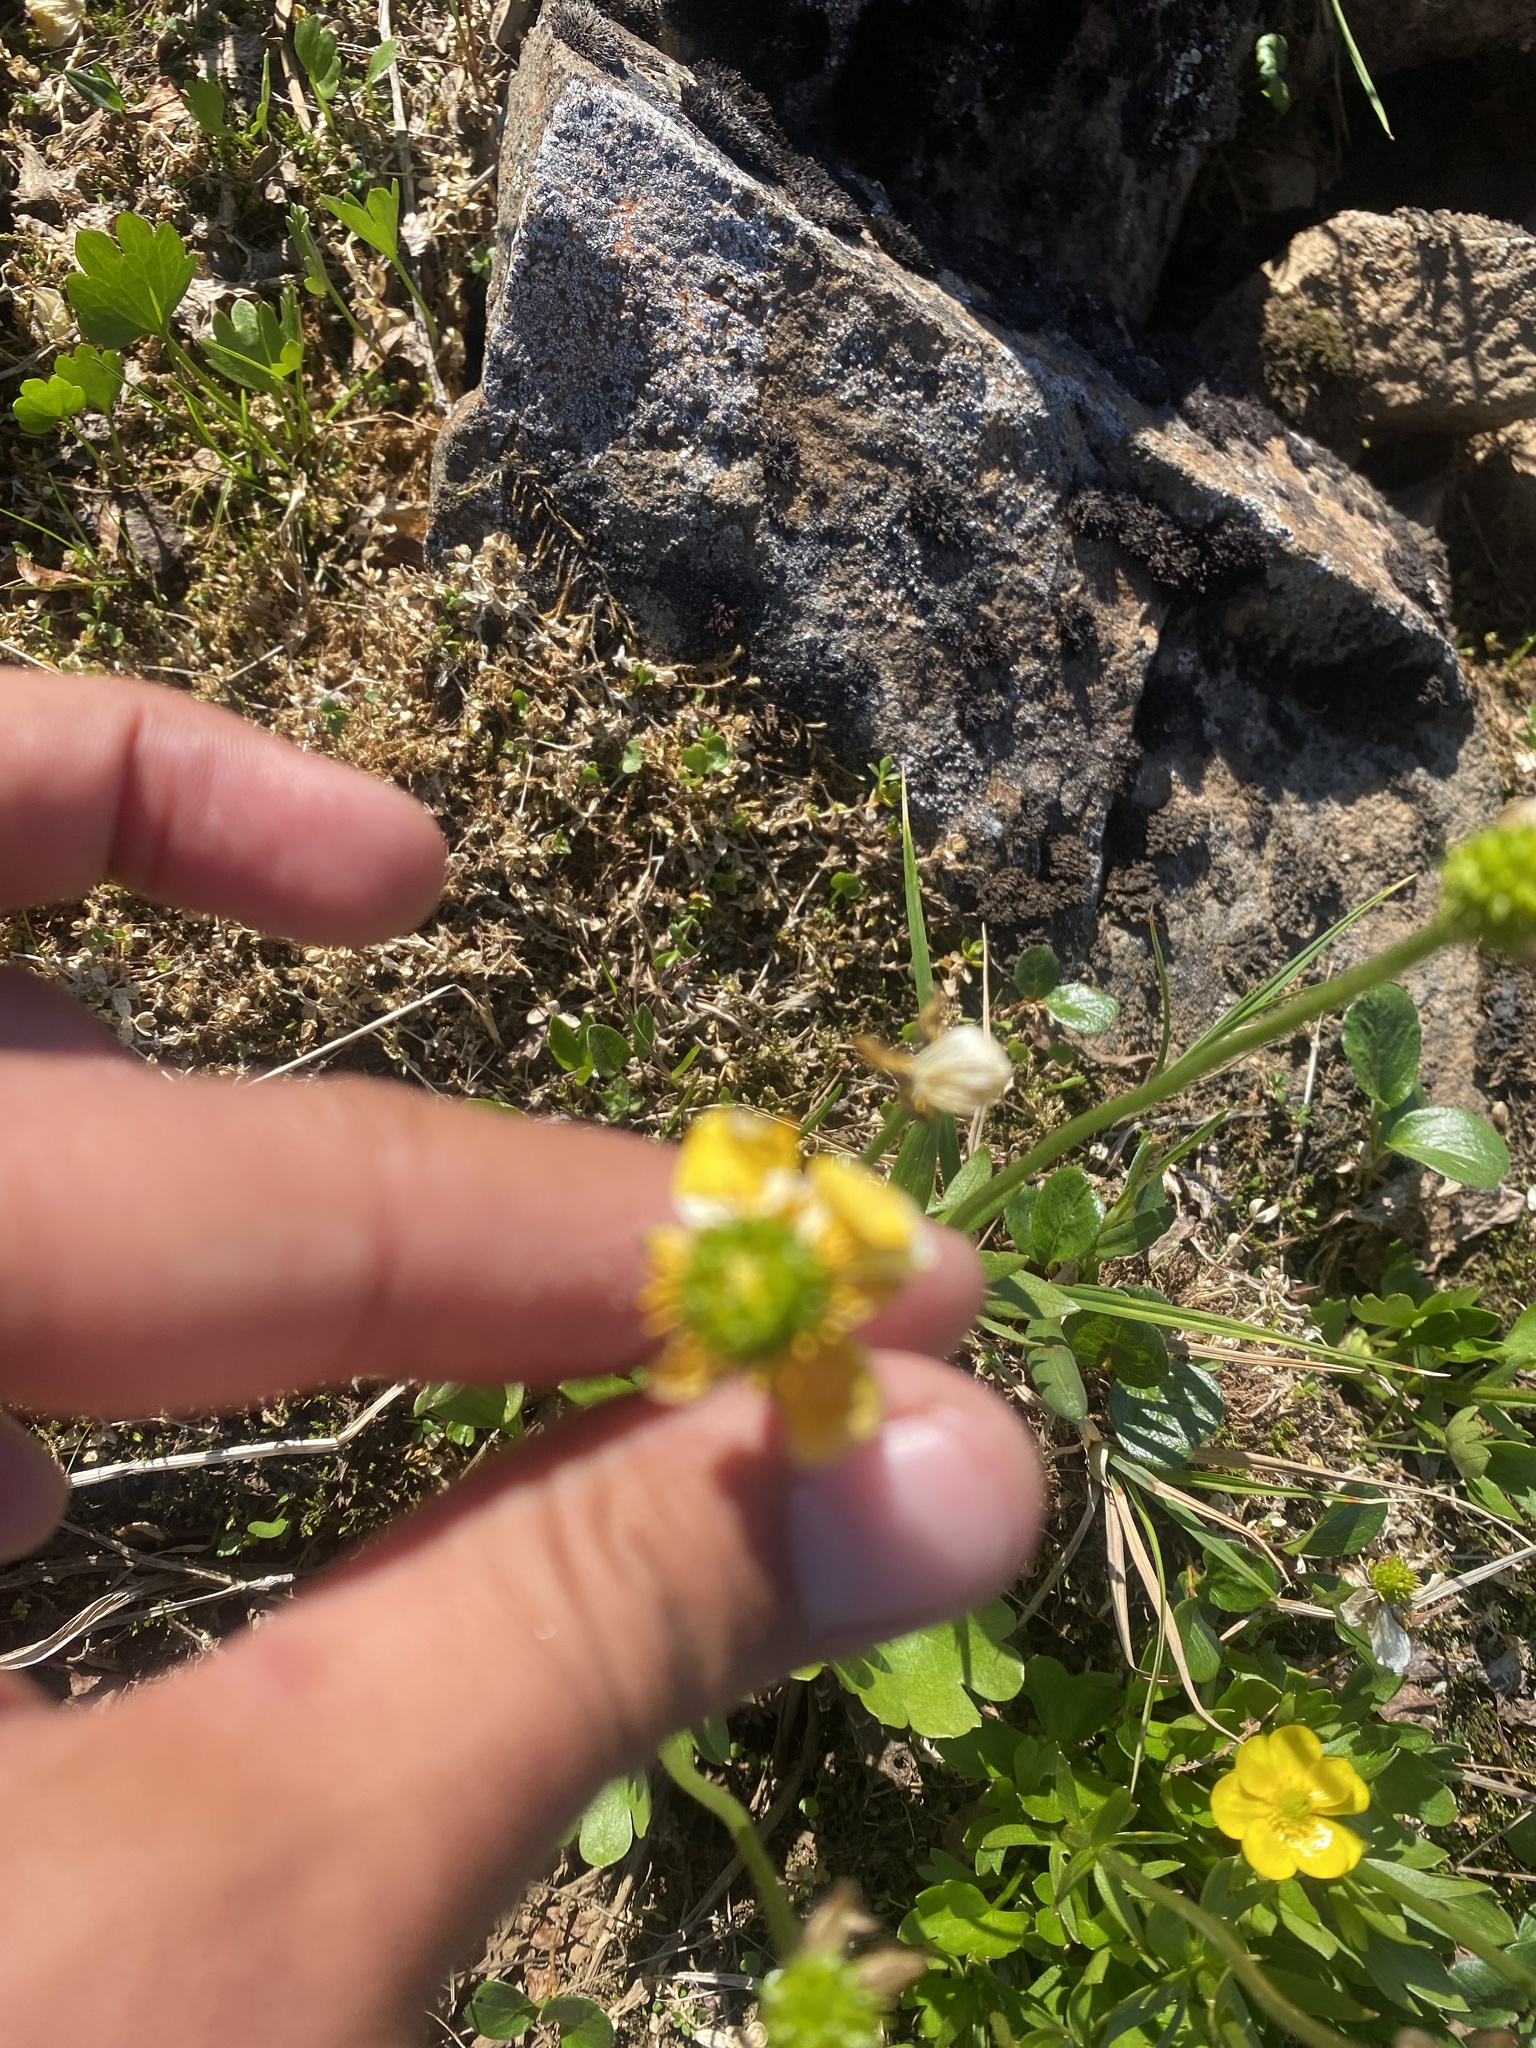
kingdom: Plantae
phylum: Tracheophyta
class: Magnoliopsida
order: Ranunculales
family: Ranunculaceae
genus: Ranunculus
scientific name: Ranunculus sulphureus
